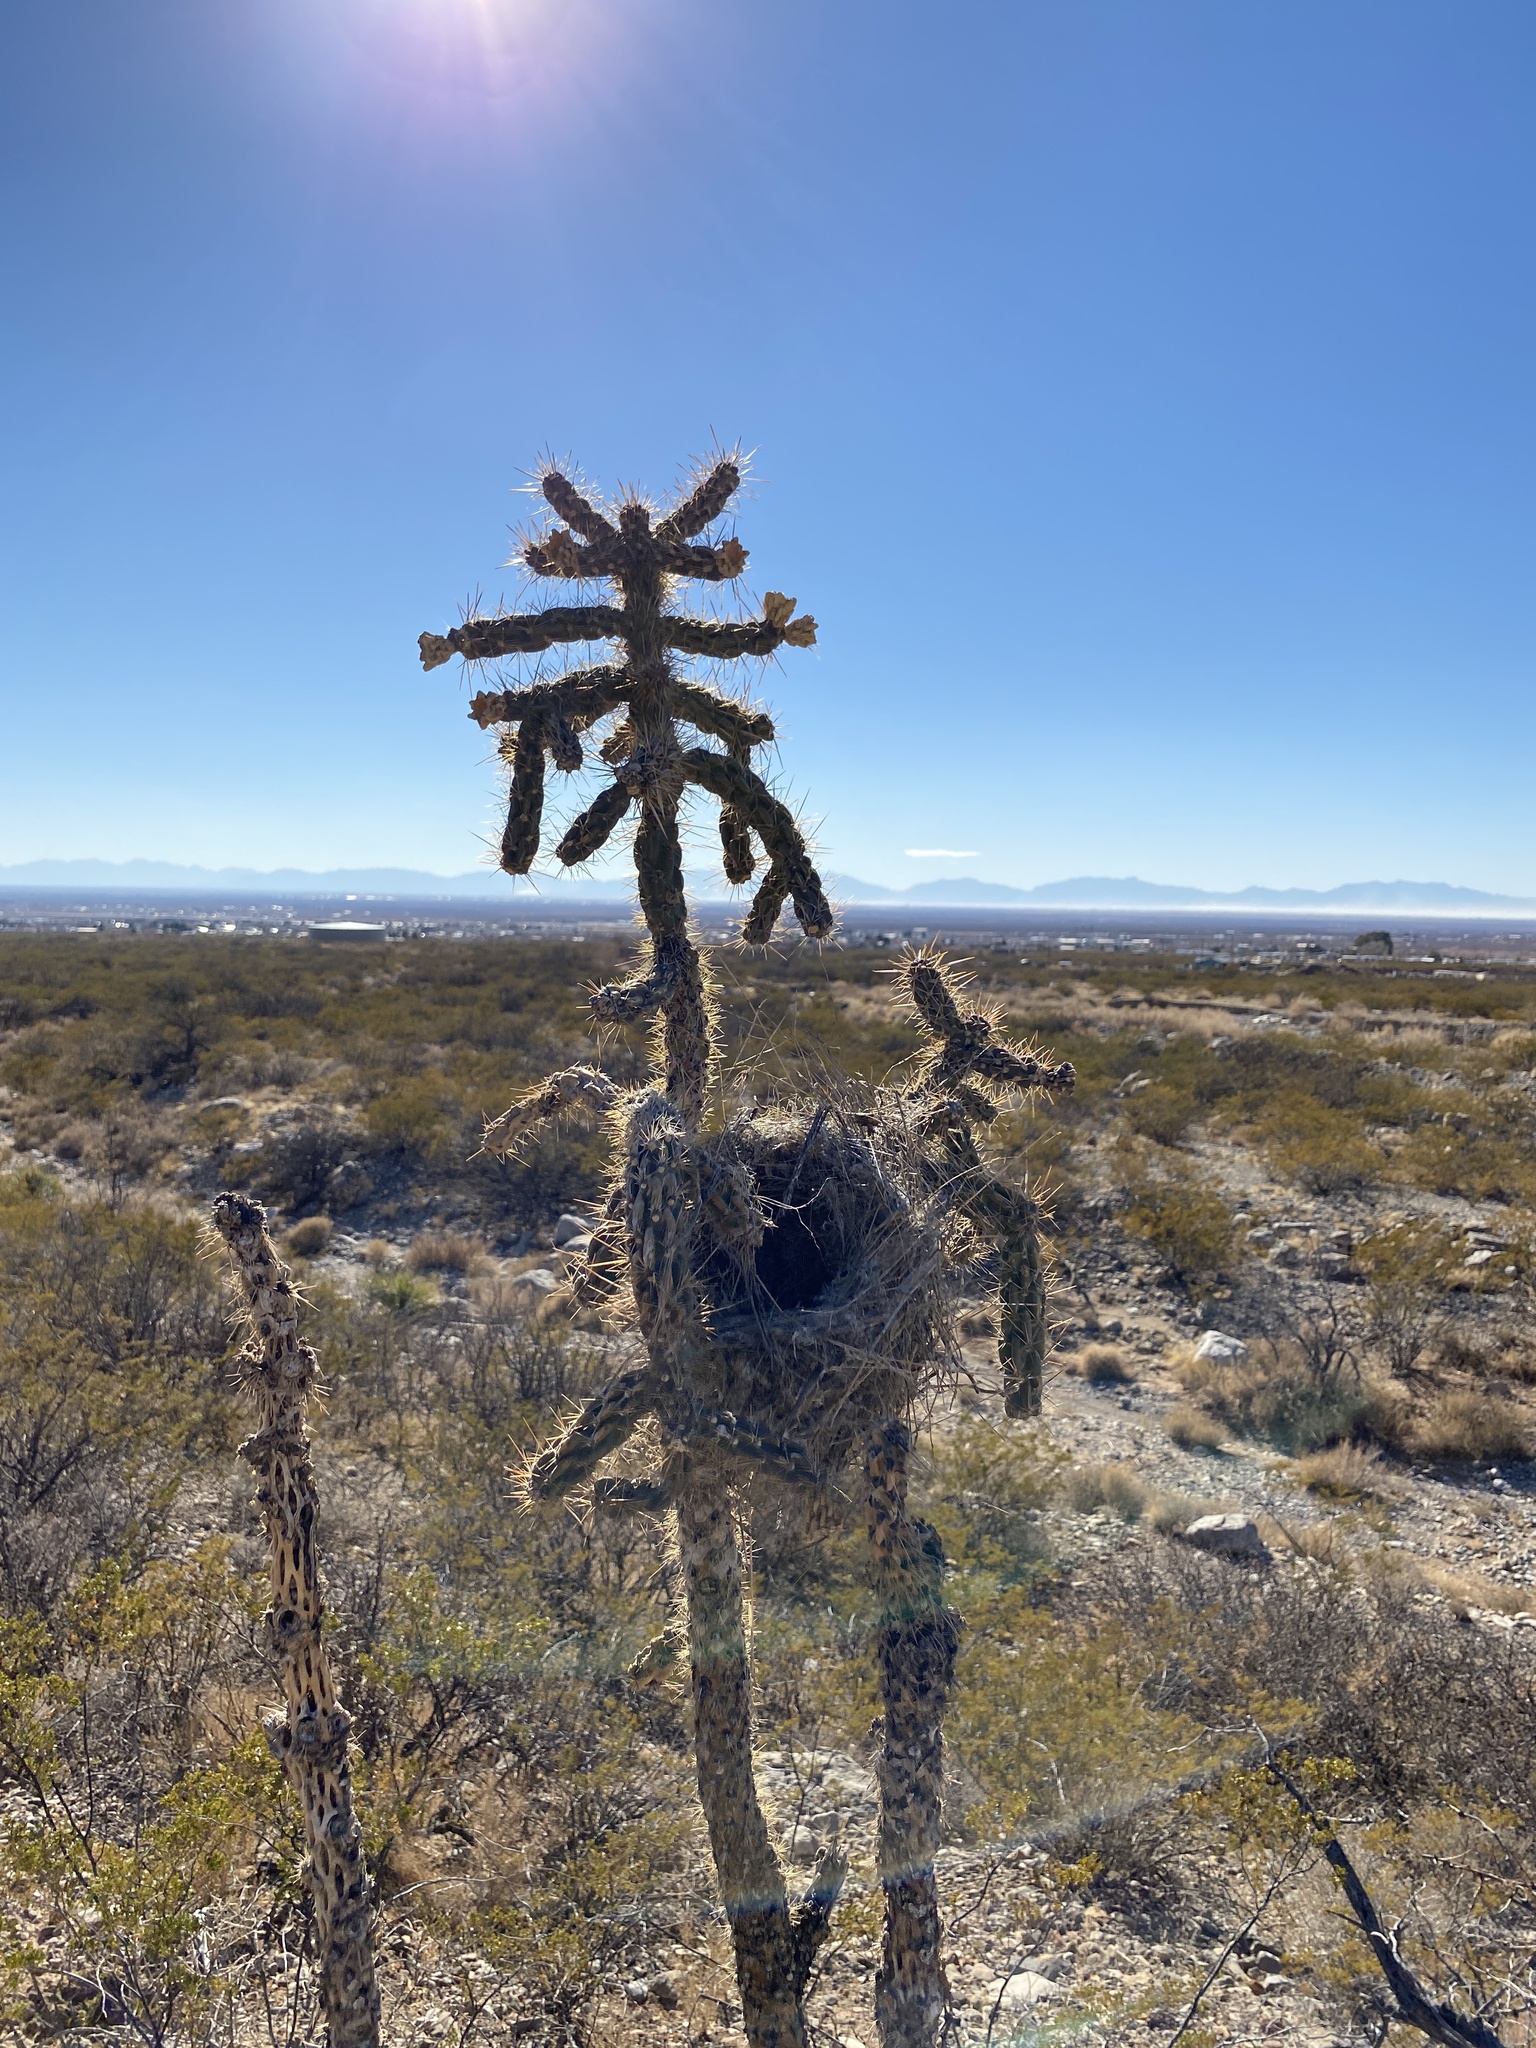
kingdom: Plantae
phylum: Tracheophyta
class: Magnoliopsida
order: Caryophyllales
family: Cactaceae
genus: Cylindropuntia
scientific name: Cylindropuntia imbricata
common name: Candelabrum cactus
